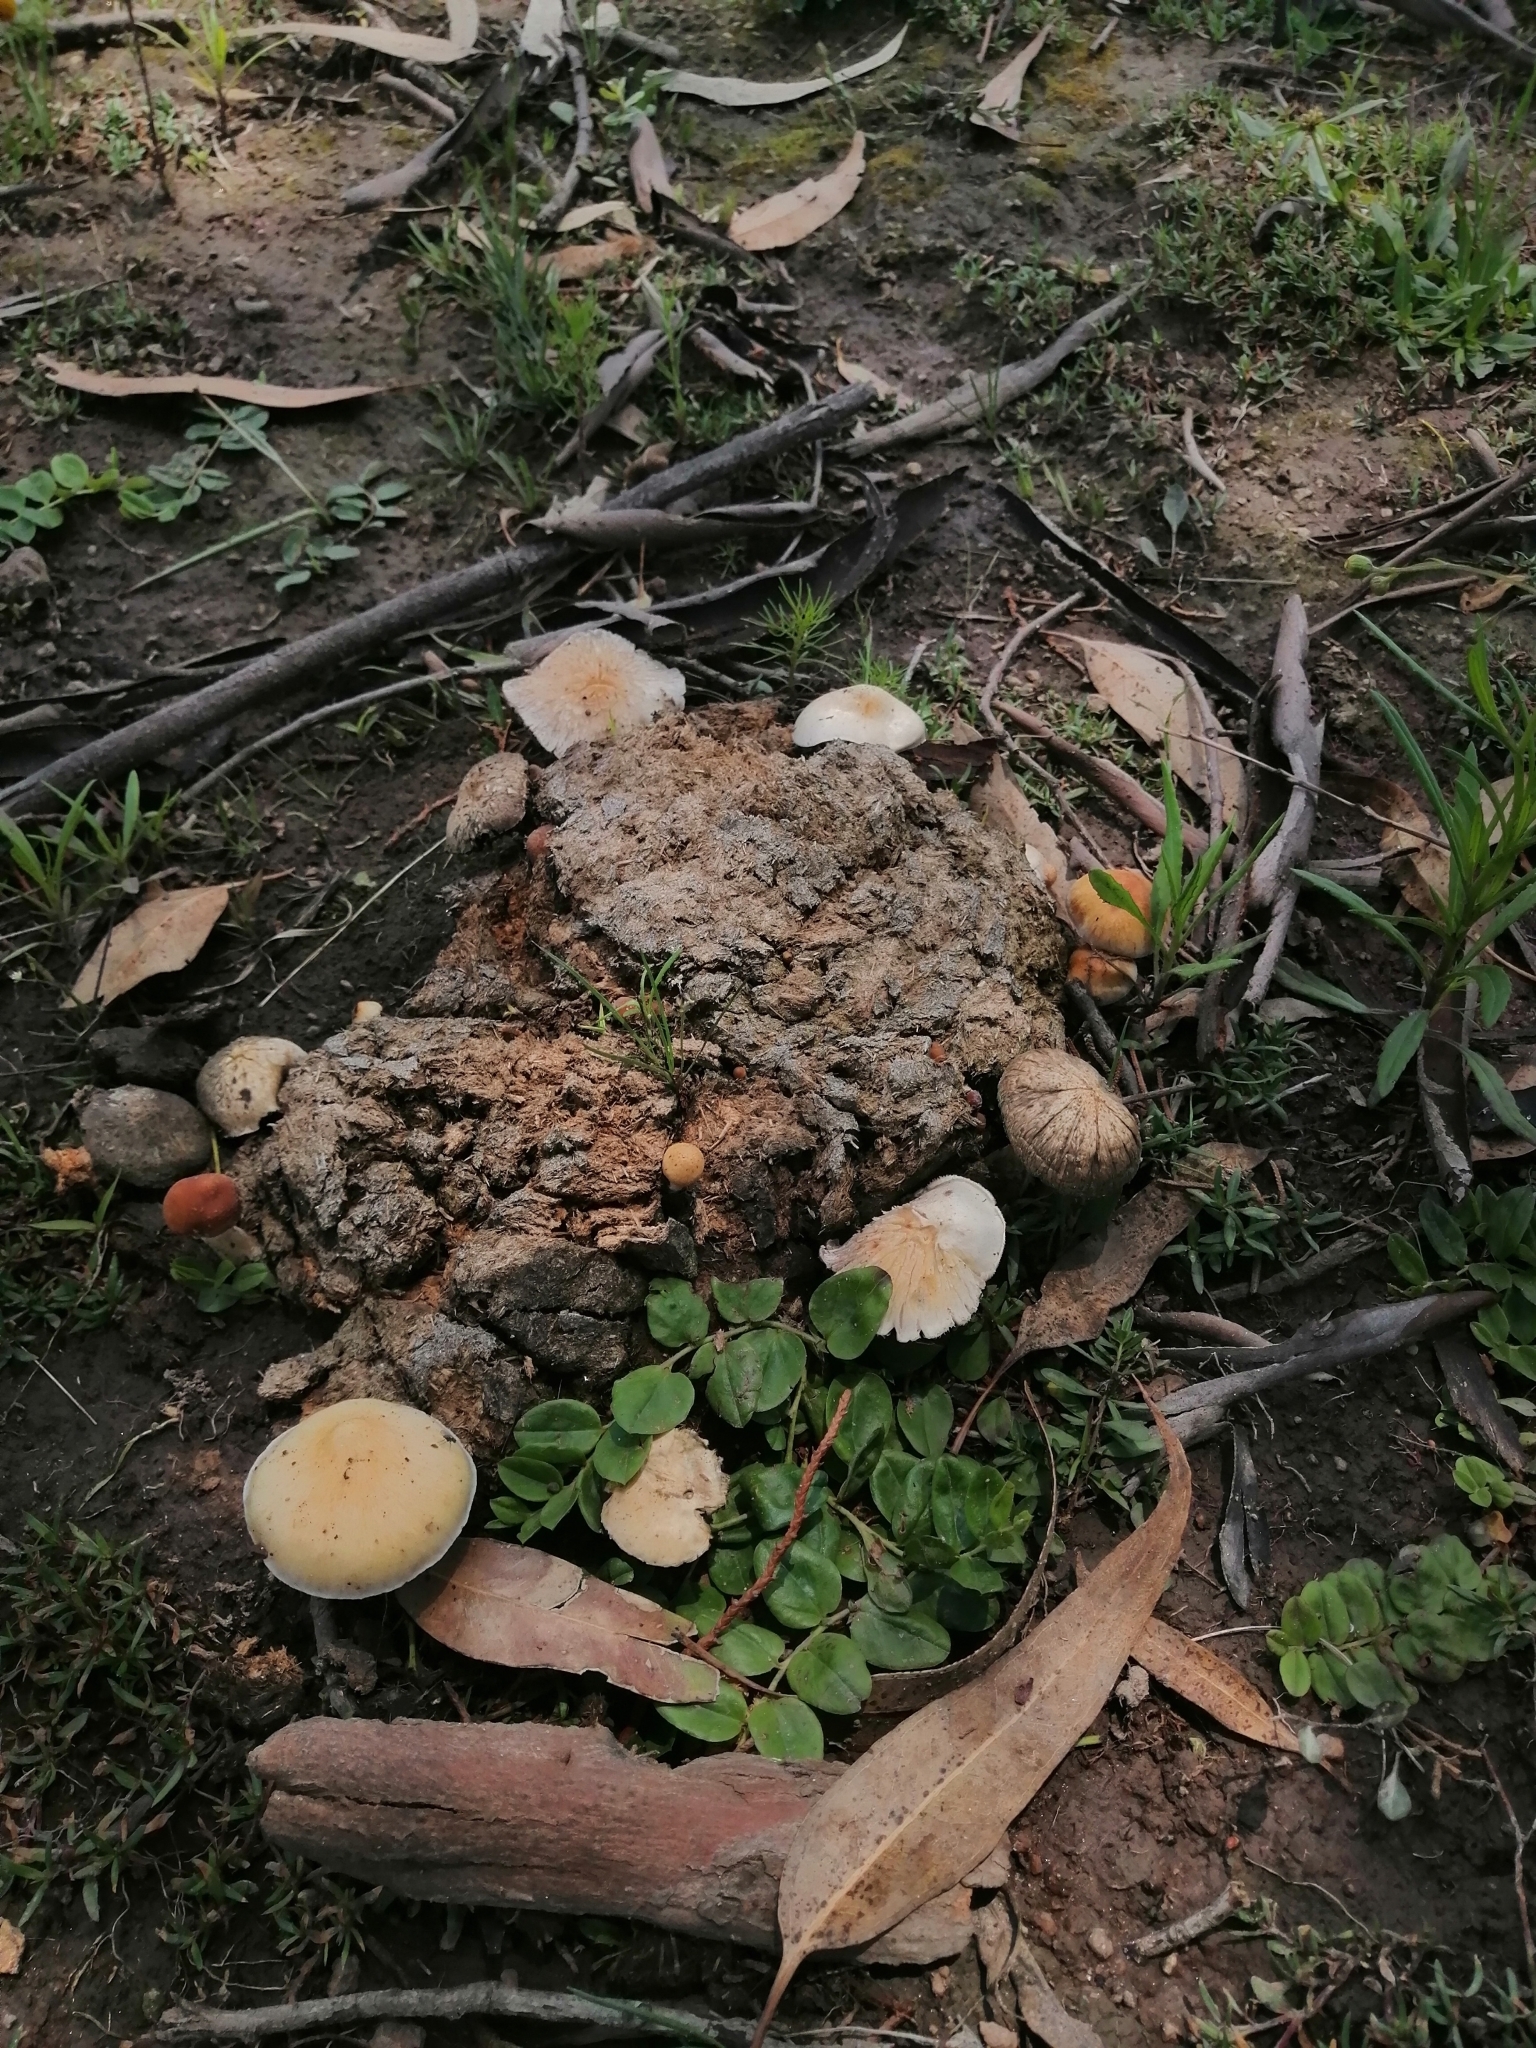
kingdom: Fungi
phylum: Basidiomycota
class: Agaricomycetes
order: Agaricales
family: Hymenogastraceae
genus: Psilocybe
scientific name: Psilocybe cubensis
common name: Golden brownie
